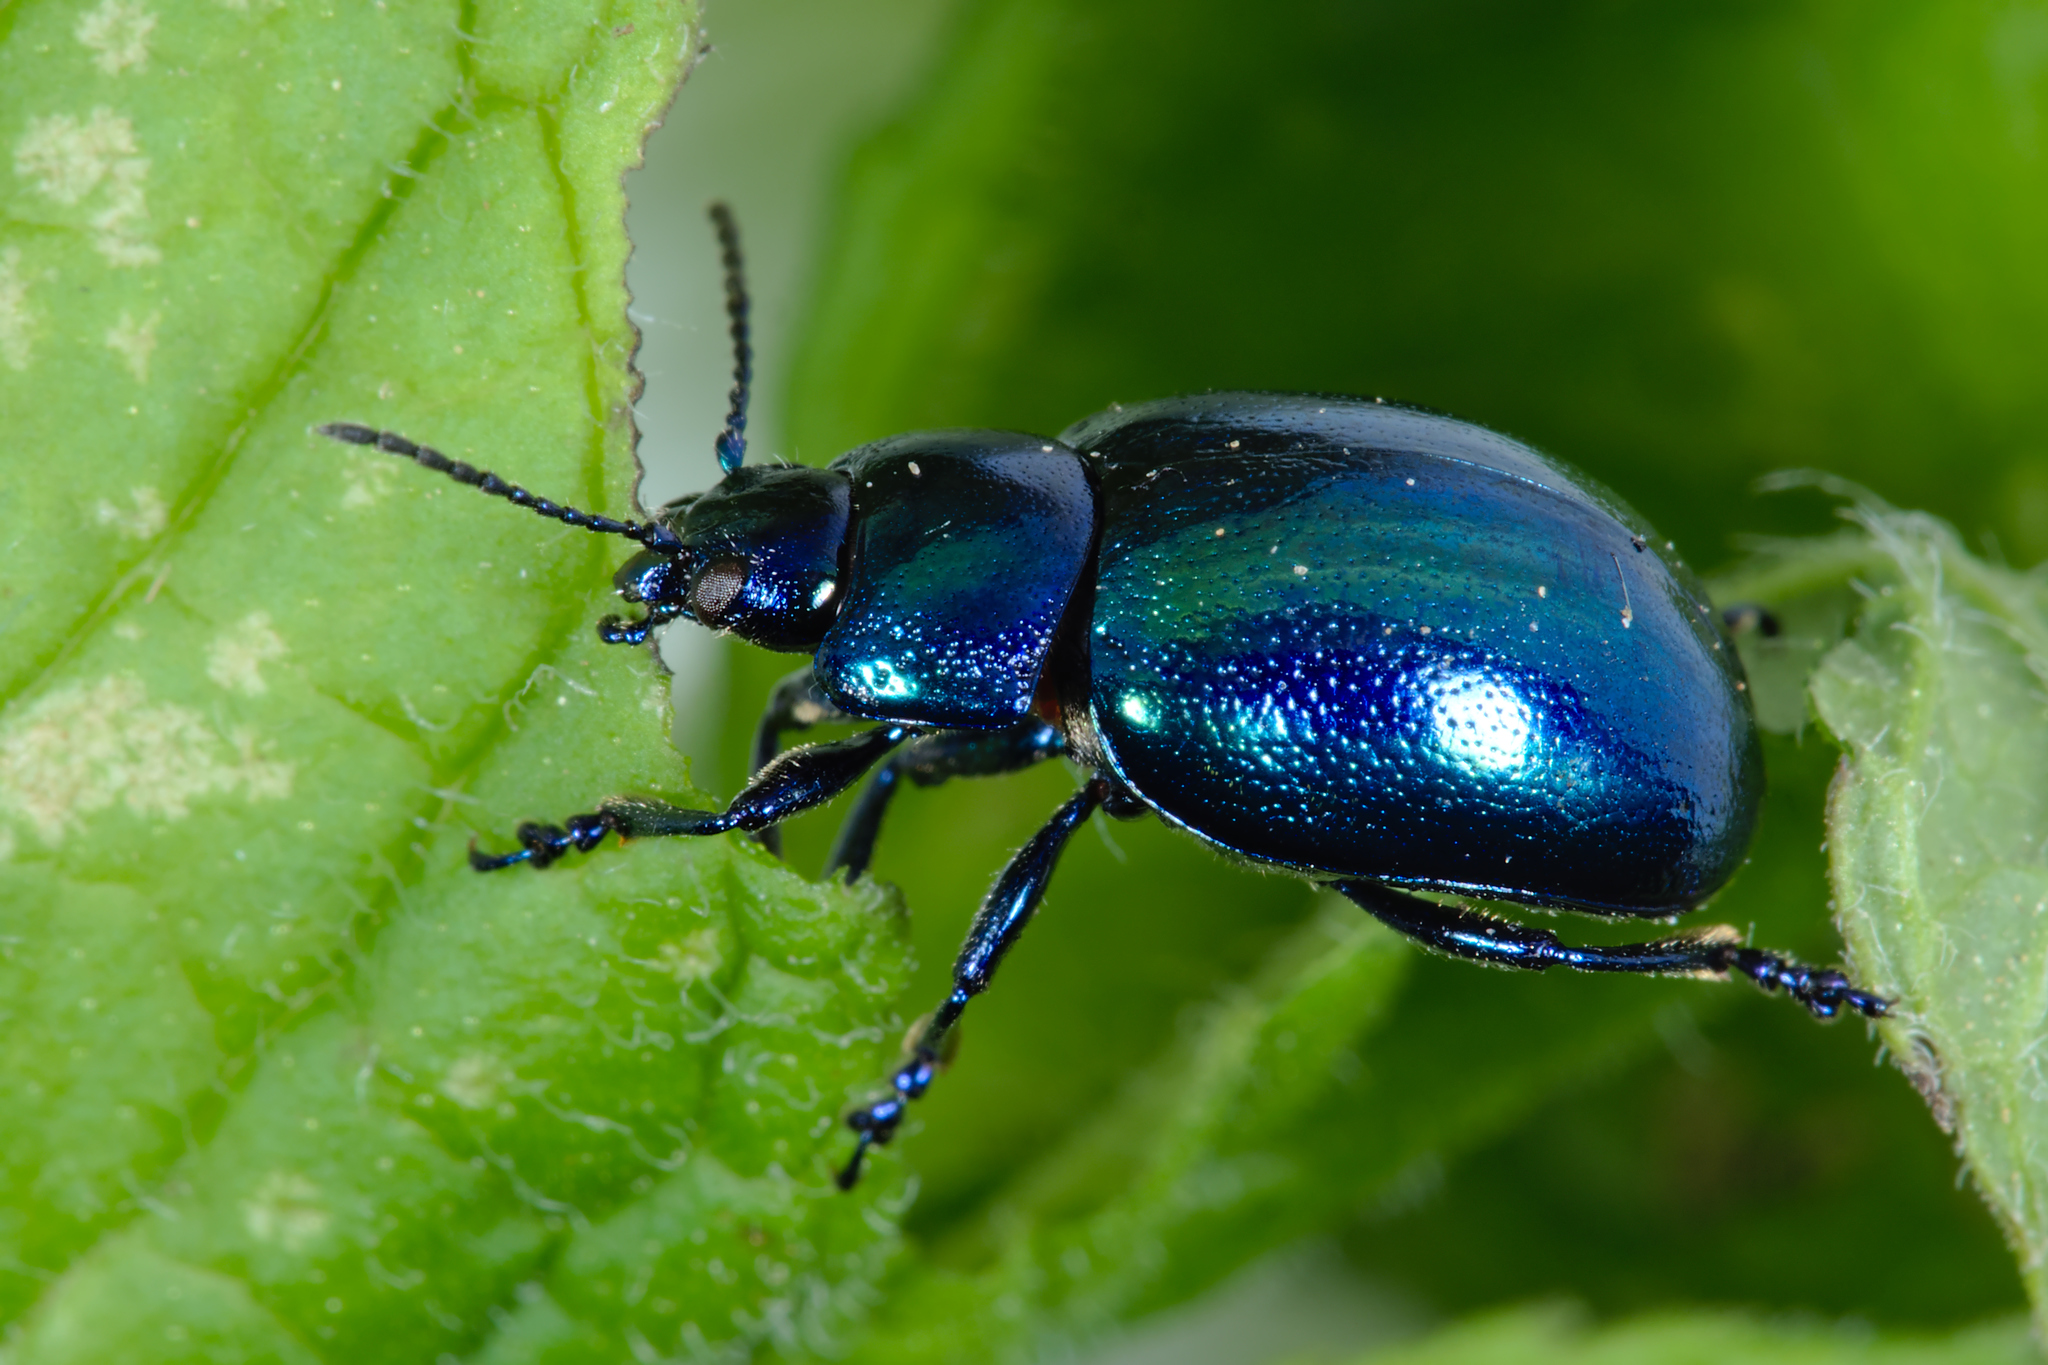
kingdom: Animalia
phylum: Arthropoda
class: Insecta
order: Coleoptera
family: Chrysomelidae
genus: Chrysolina
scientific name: Chrysolina coerulans
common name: Blue mint beetle
